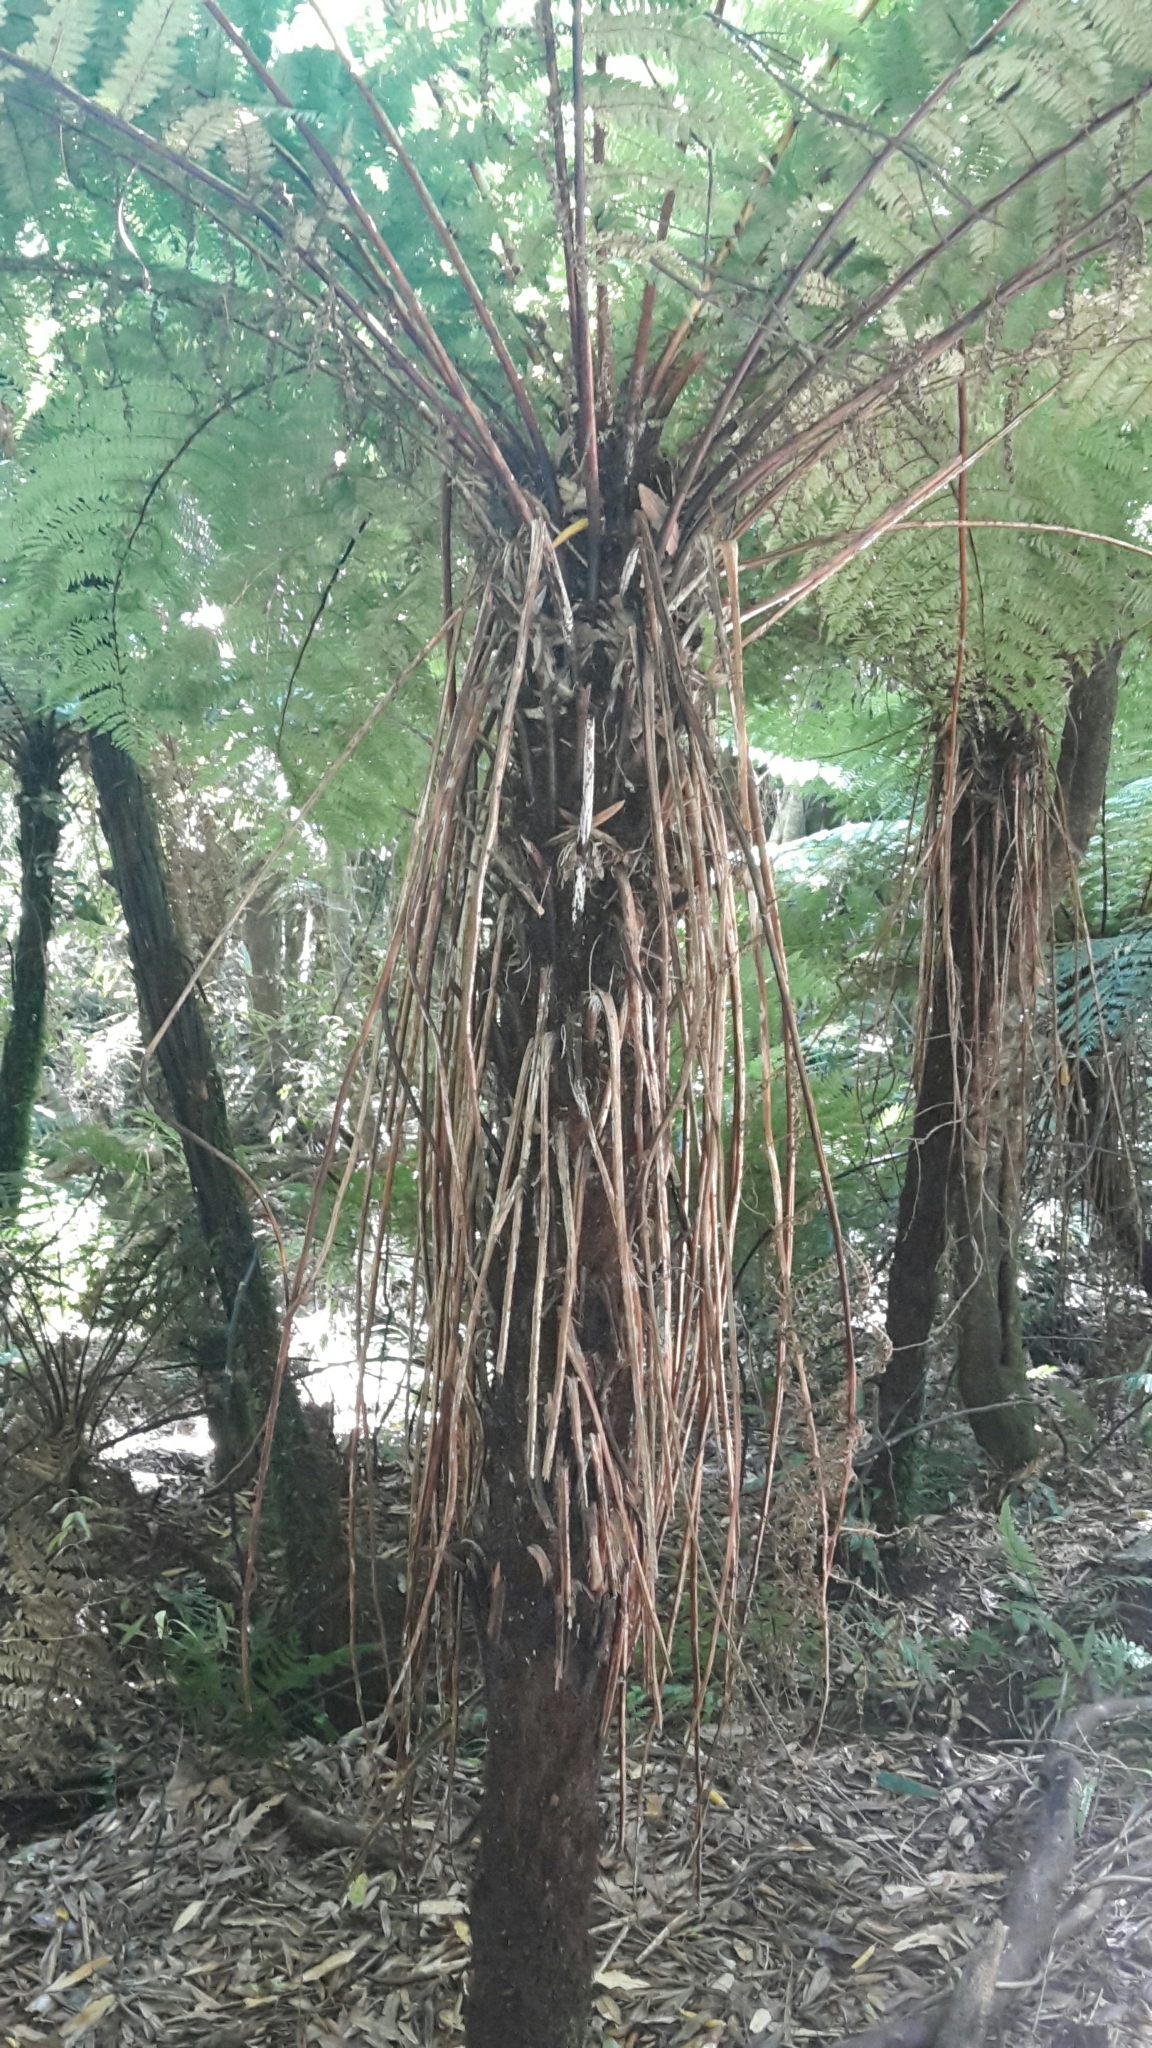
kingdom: Plantae
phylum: Tracheophyta
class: Polypodiopsida
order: Cyatheales
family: Cyatheaceae
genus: Alsophila
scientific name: Alsophila smithii
